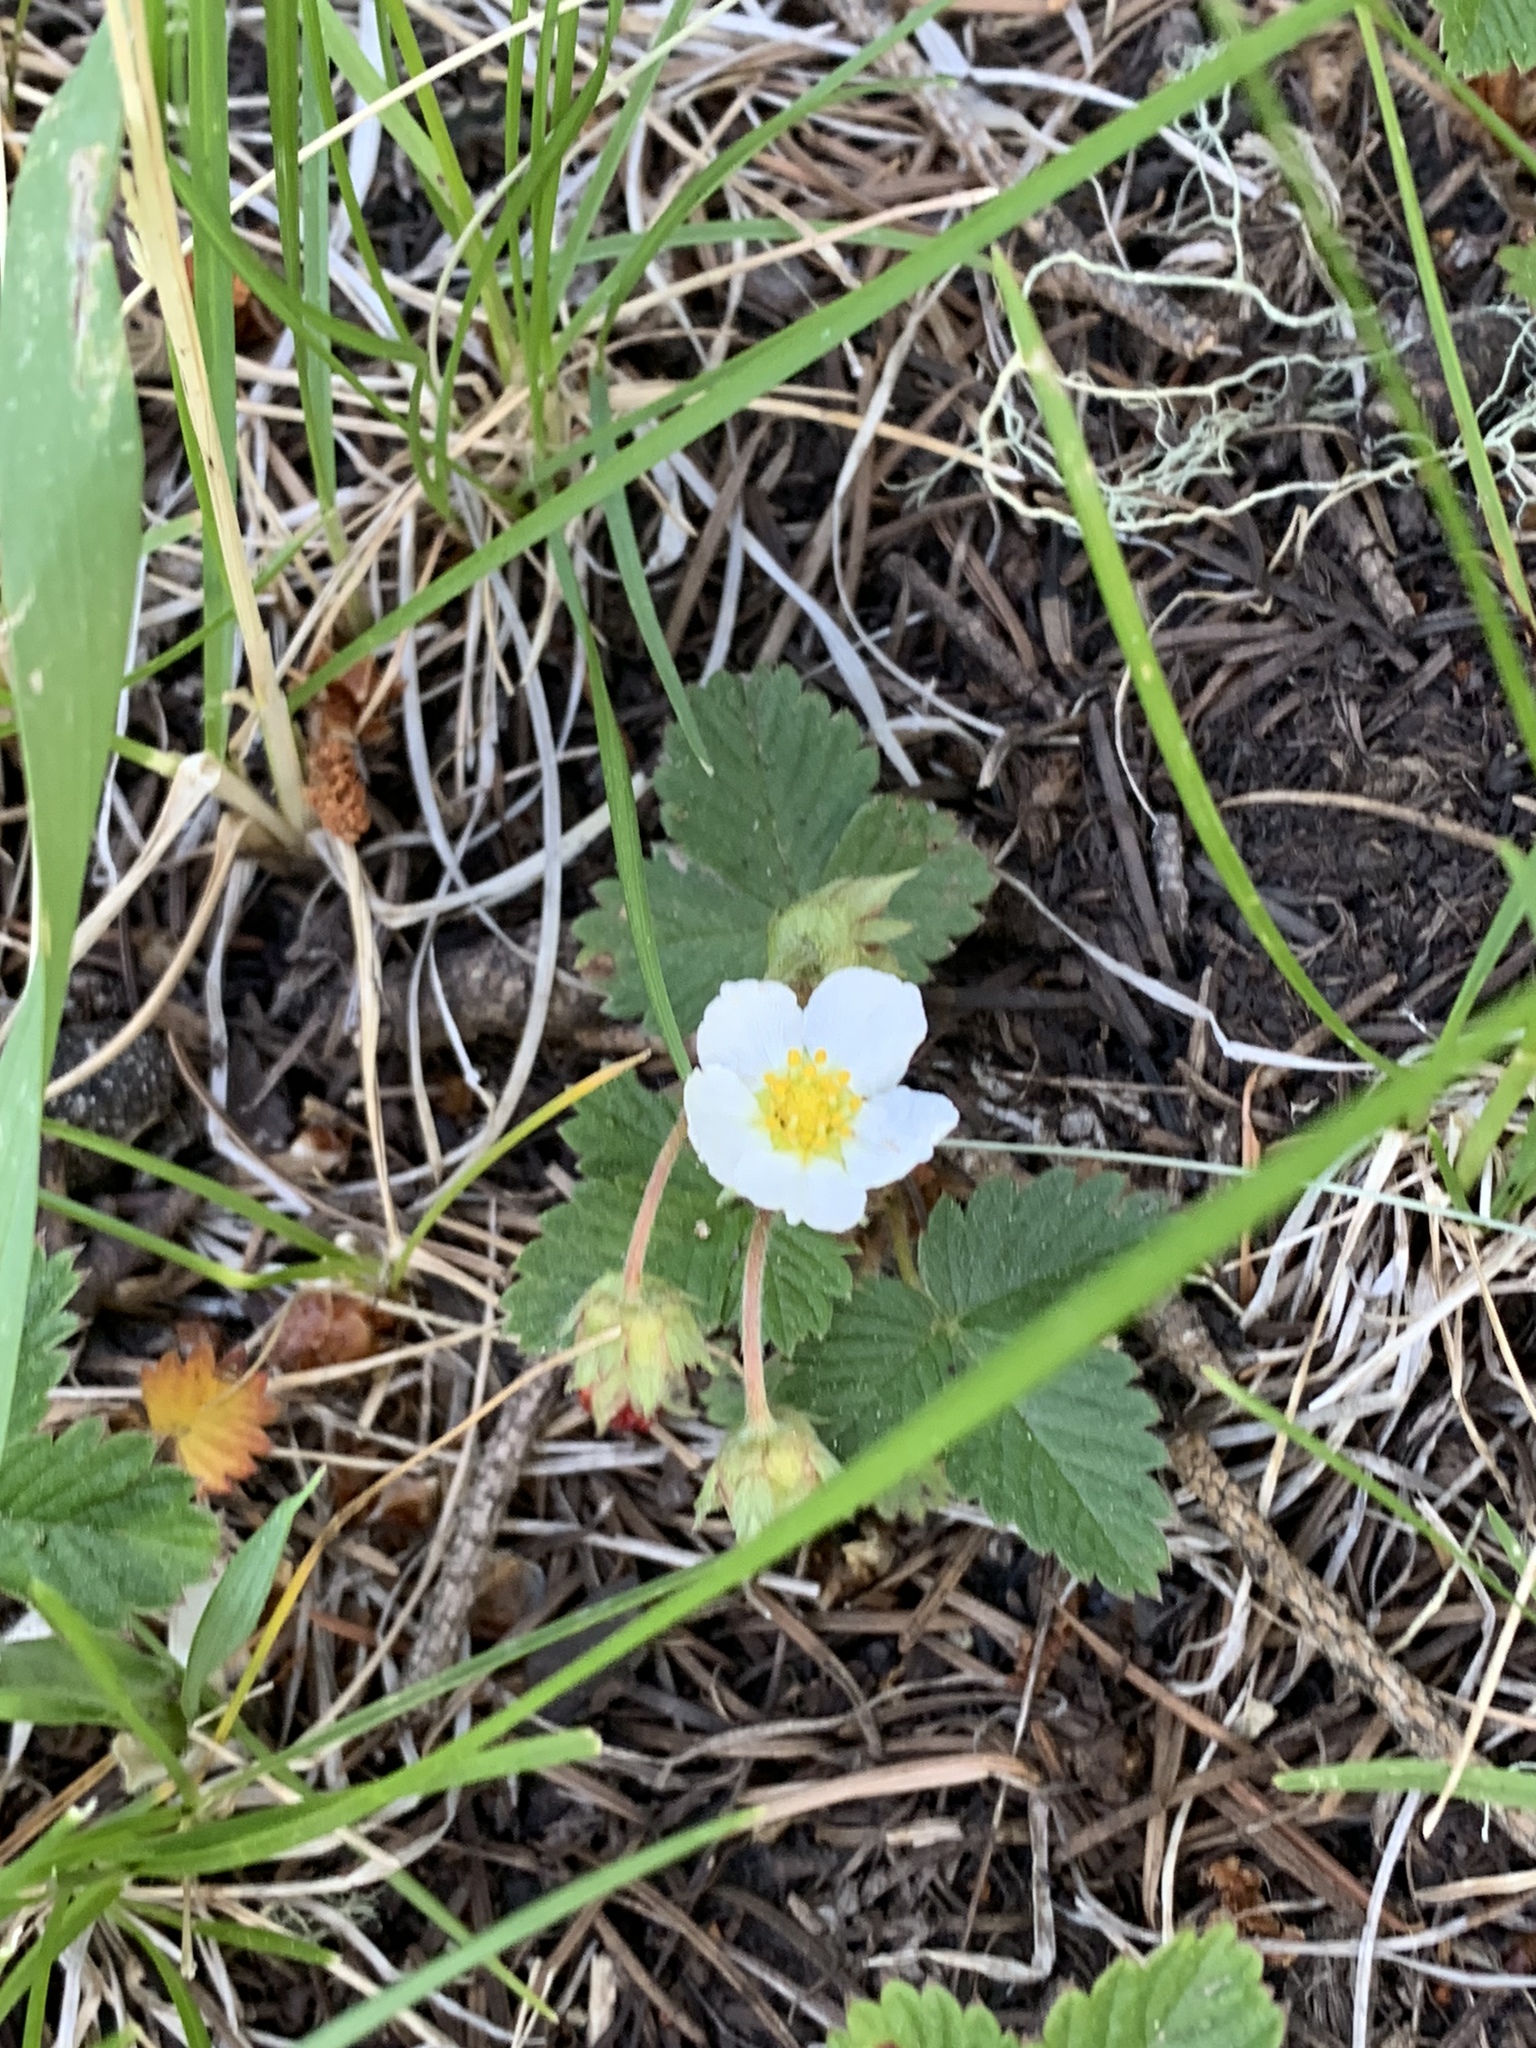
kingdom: Plantae
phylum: Tracheophyta
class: Magnoliopsida
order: Rosales
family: Rosaceae
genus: Fragaria
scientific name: Fragaria vesca
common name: Wild strawberry
